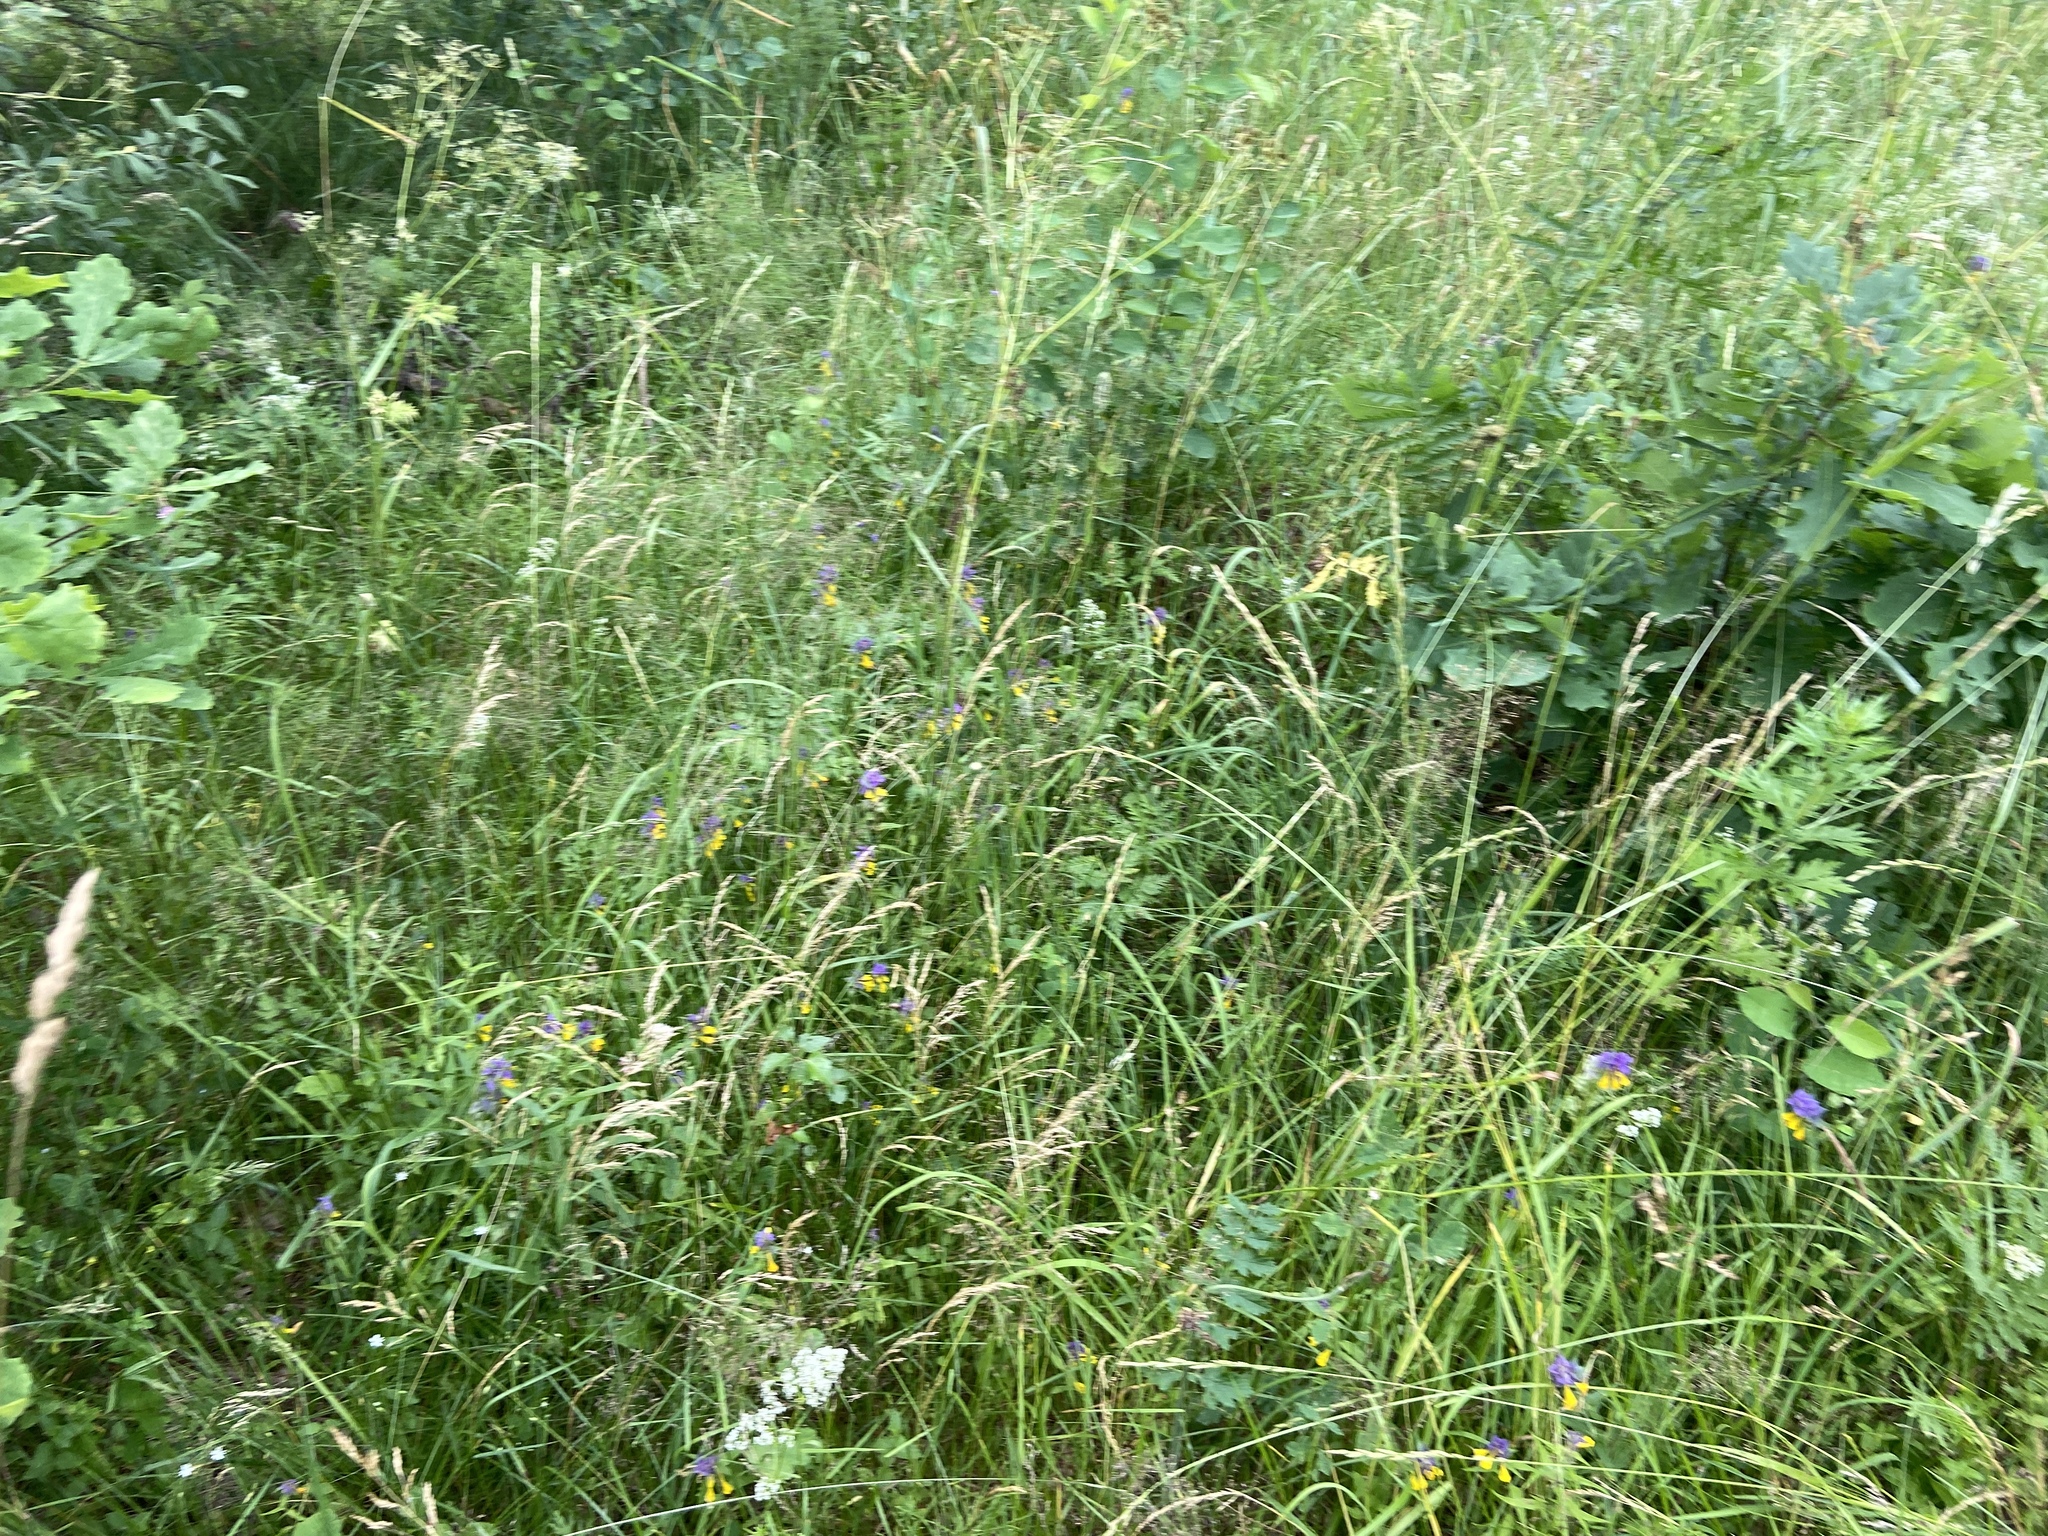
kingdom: Plantae
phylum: Tracheophyta
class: Magnoliopsida
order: Fagales
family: Fagaceae
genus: Quercus
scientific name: Quercus robur
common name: Pedunculate oak
